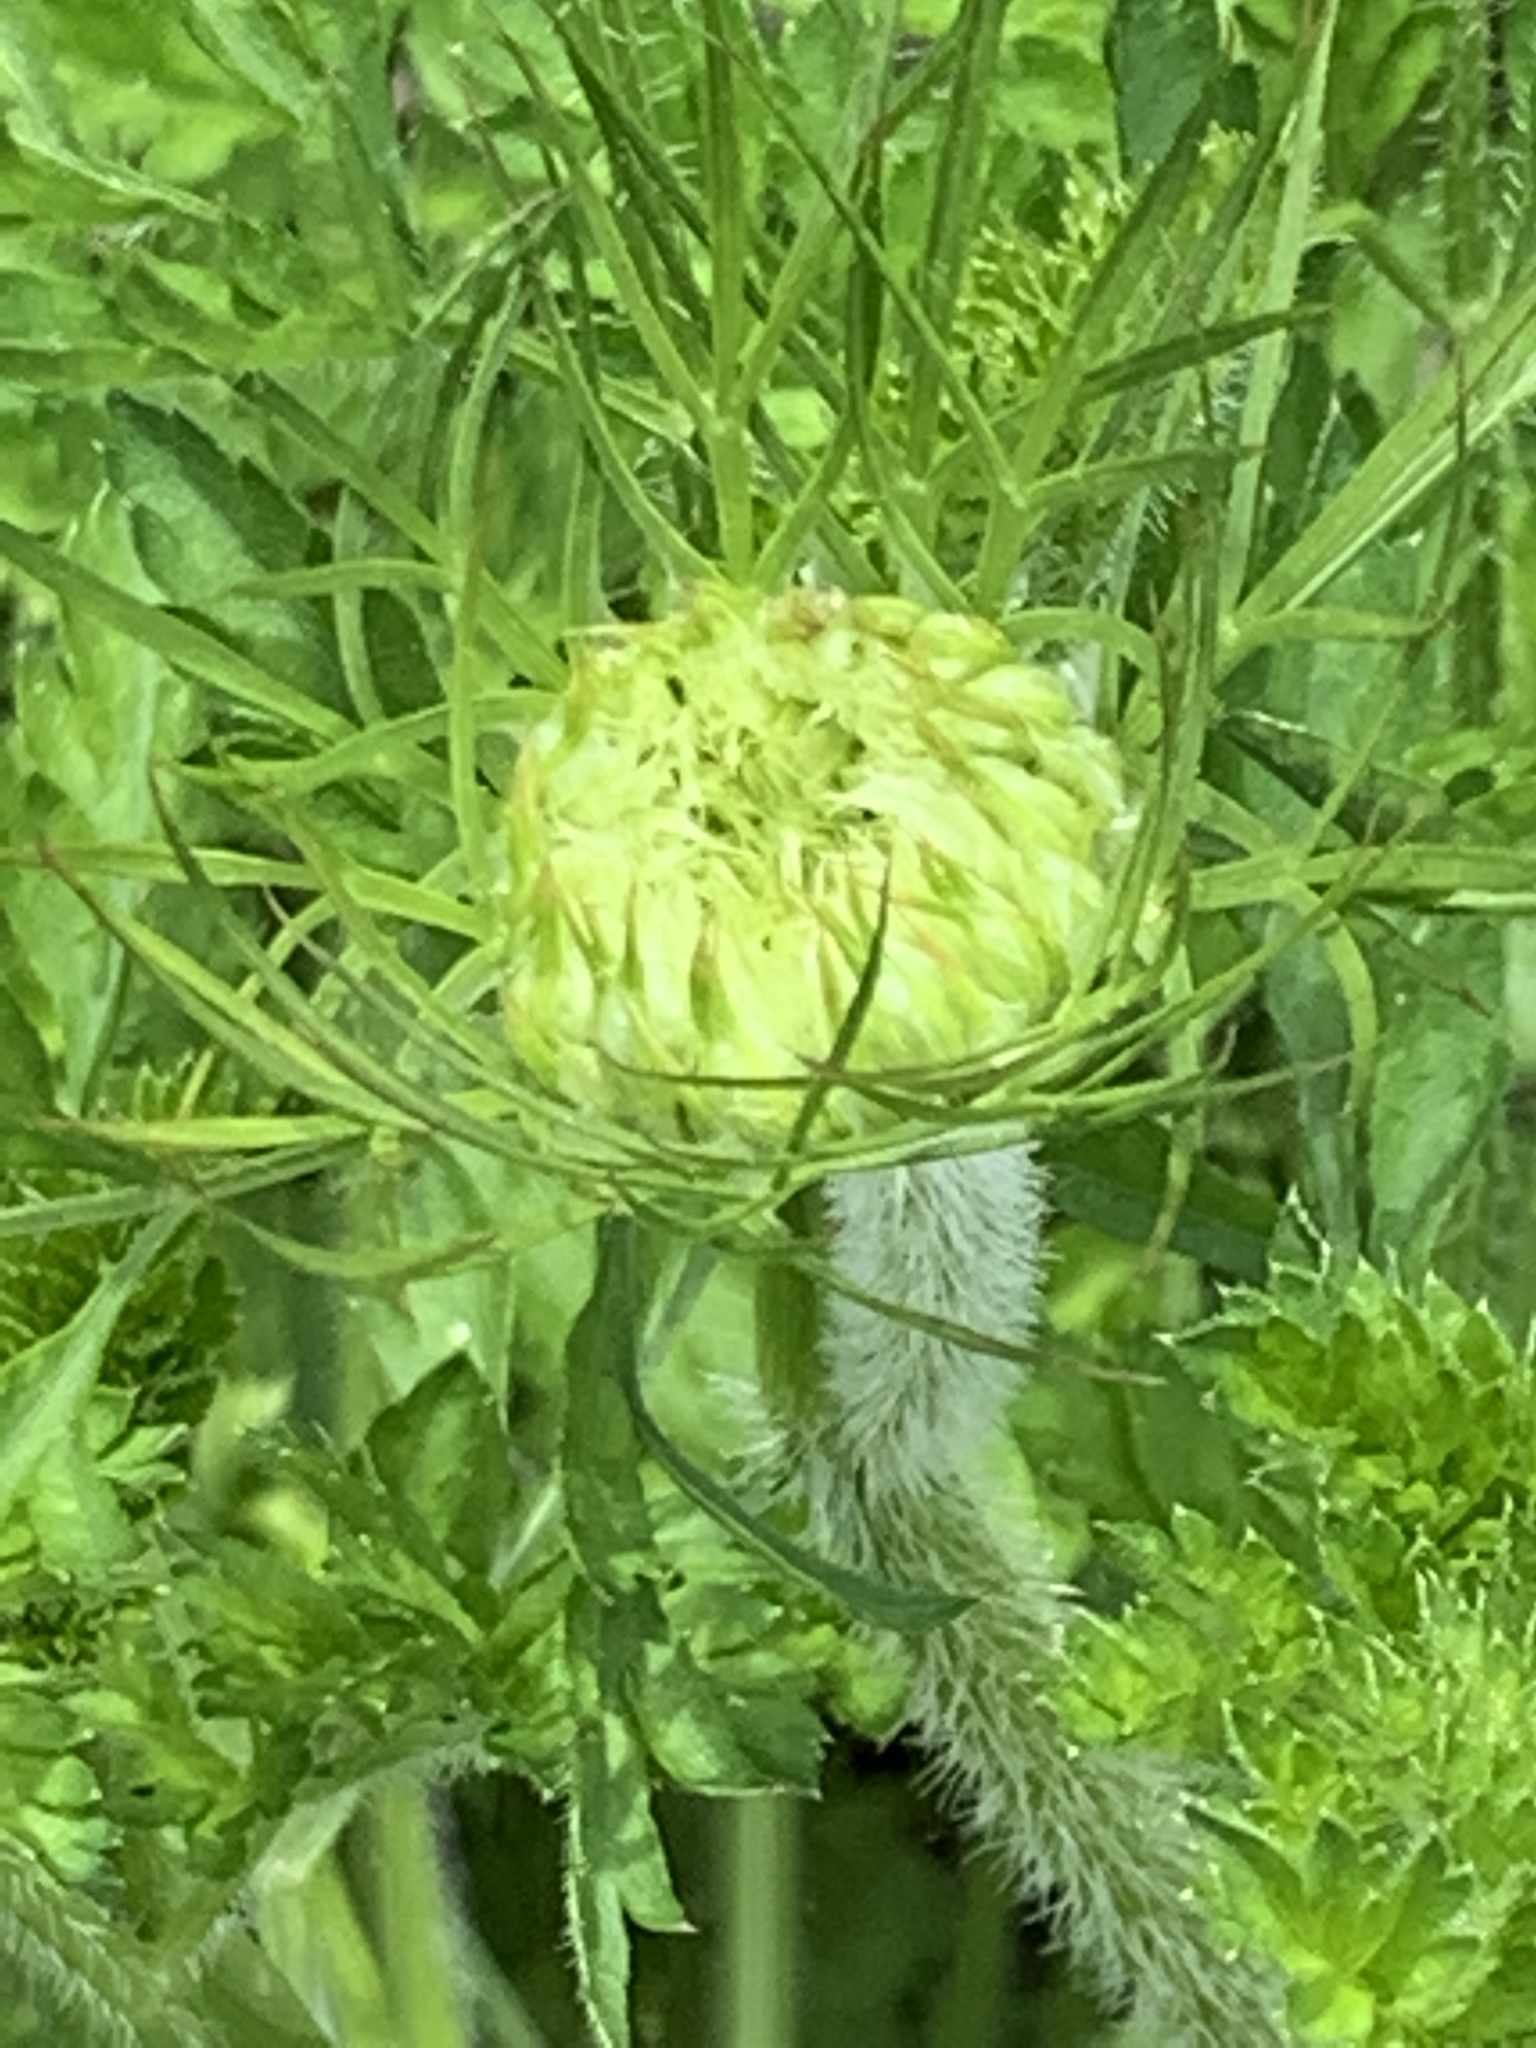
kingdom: Plantae
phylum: Tracheophyta
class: Magnoliopsida
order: Apiales
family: Apiaceae
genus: Daucus
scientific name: Daucus carota
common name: Wild carrot
